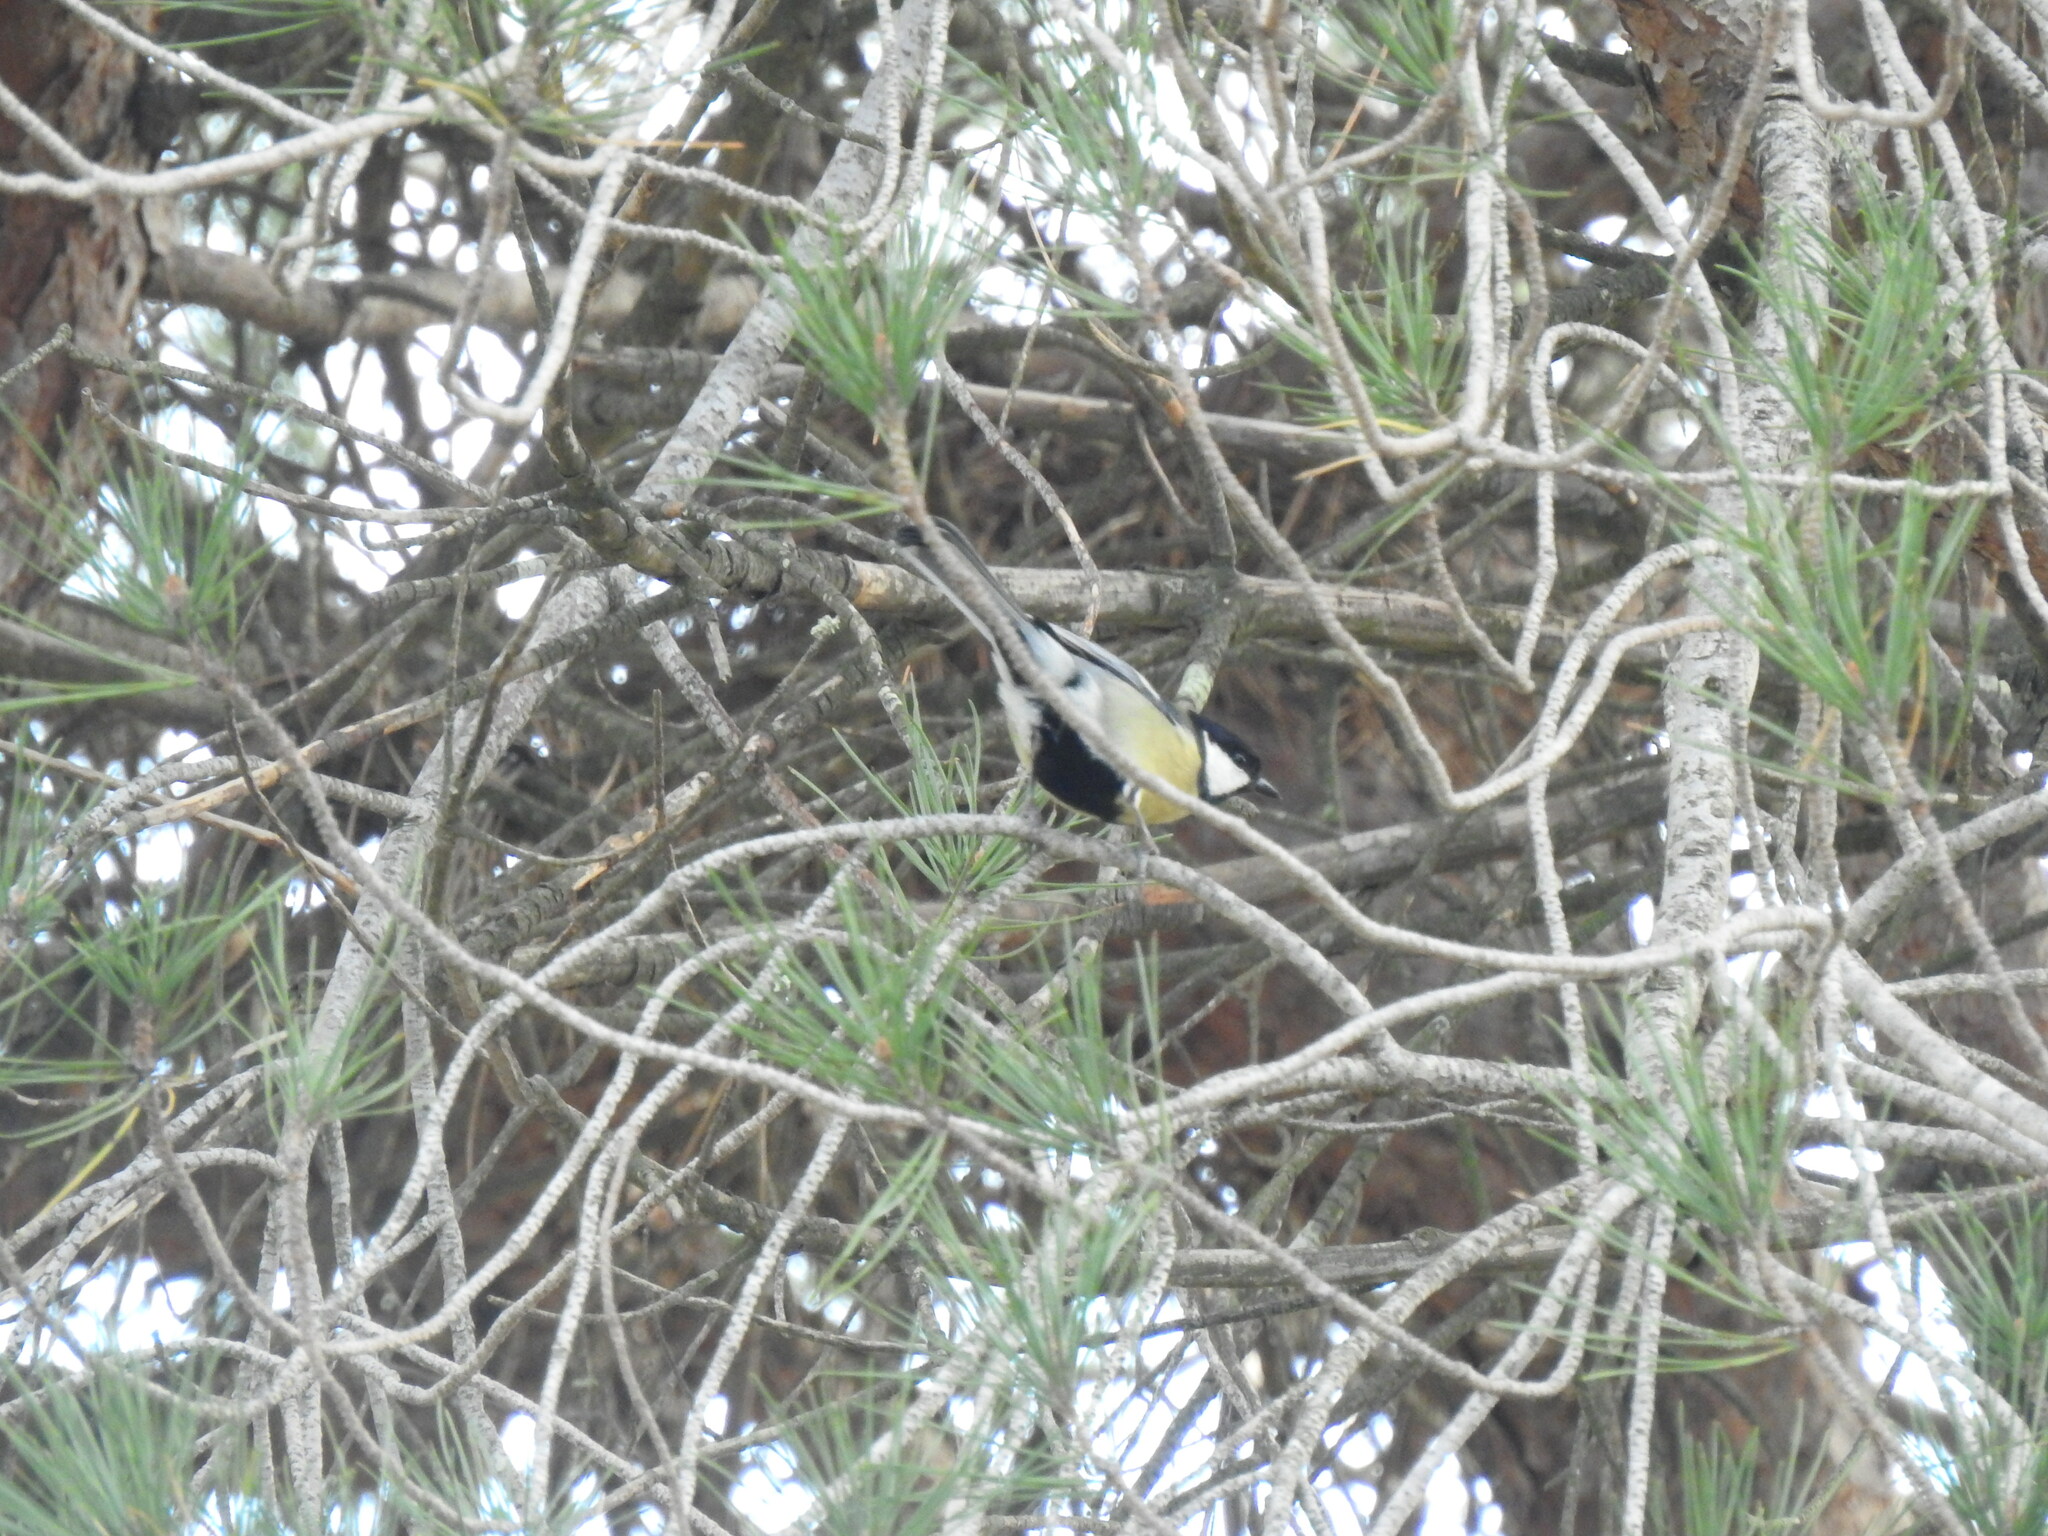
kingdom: Animalia
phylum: Chordata
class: Aves
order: Passeriformes
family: Paridae
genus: Parus
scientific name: Parus major
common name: Great tit
